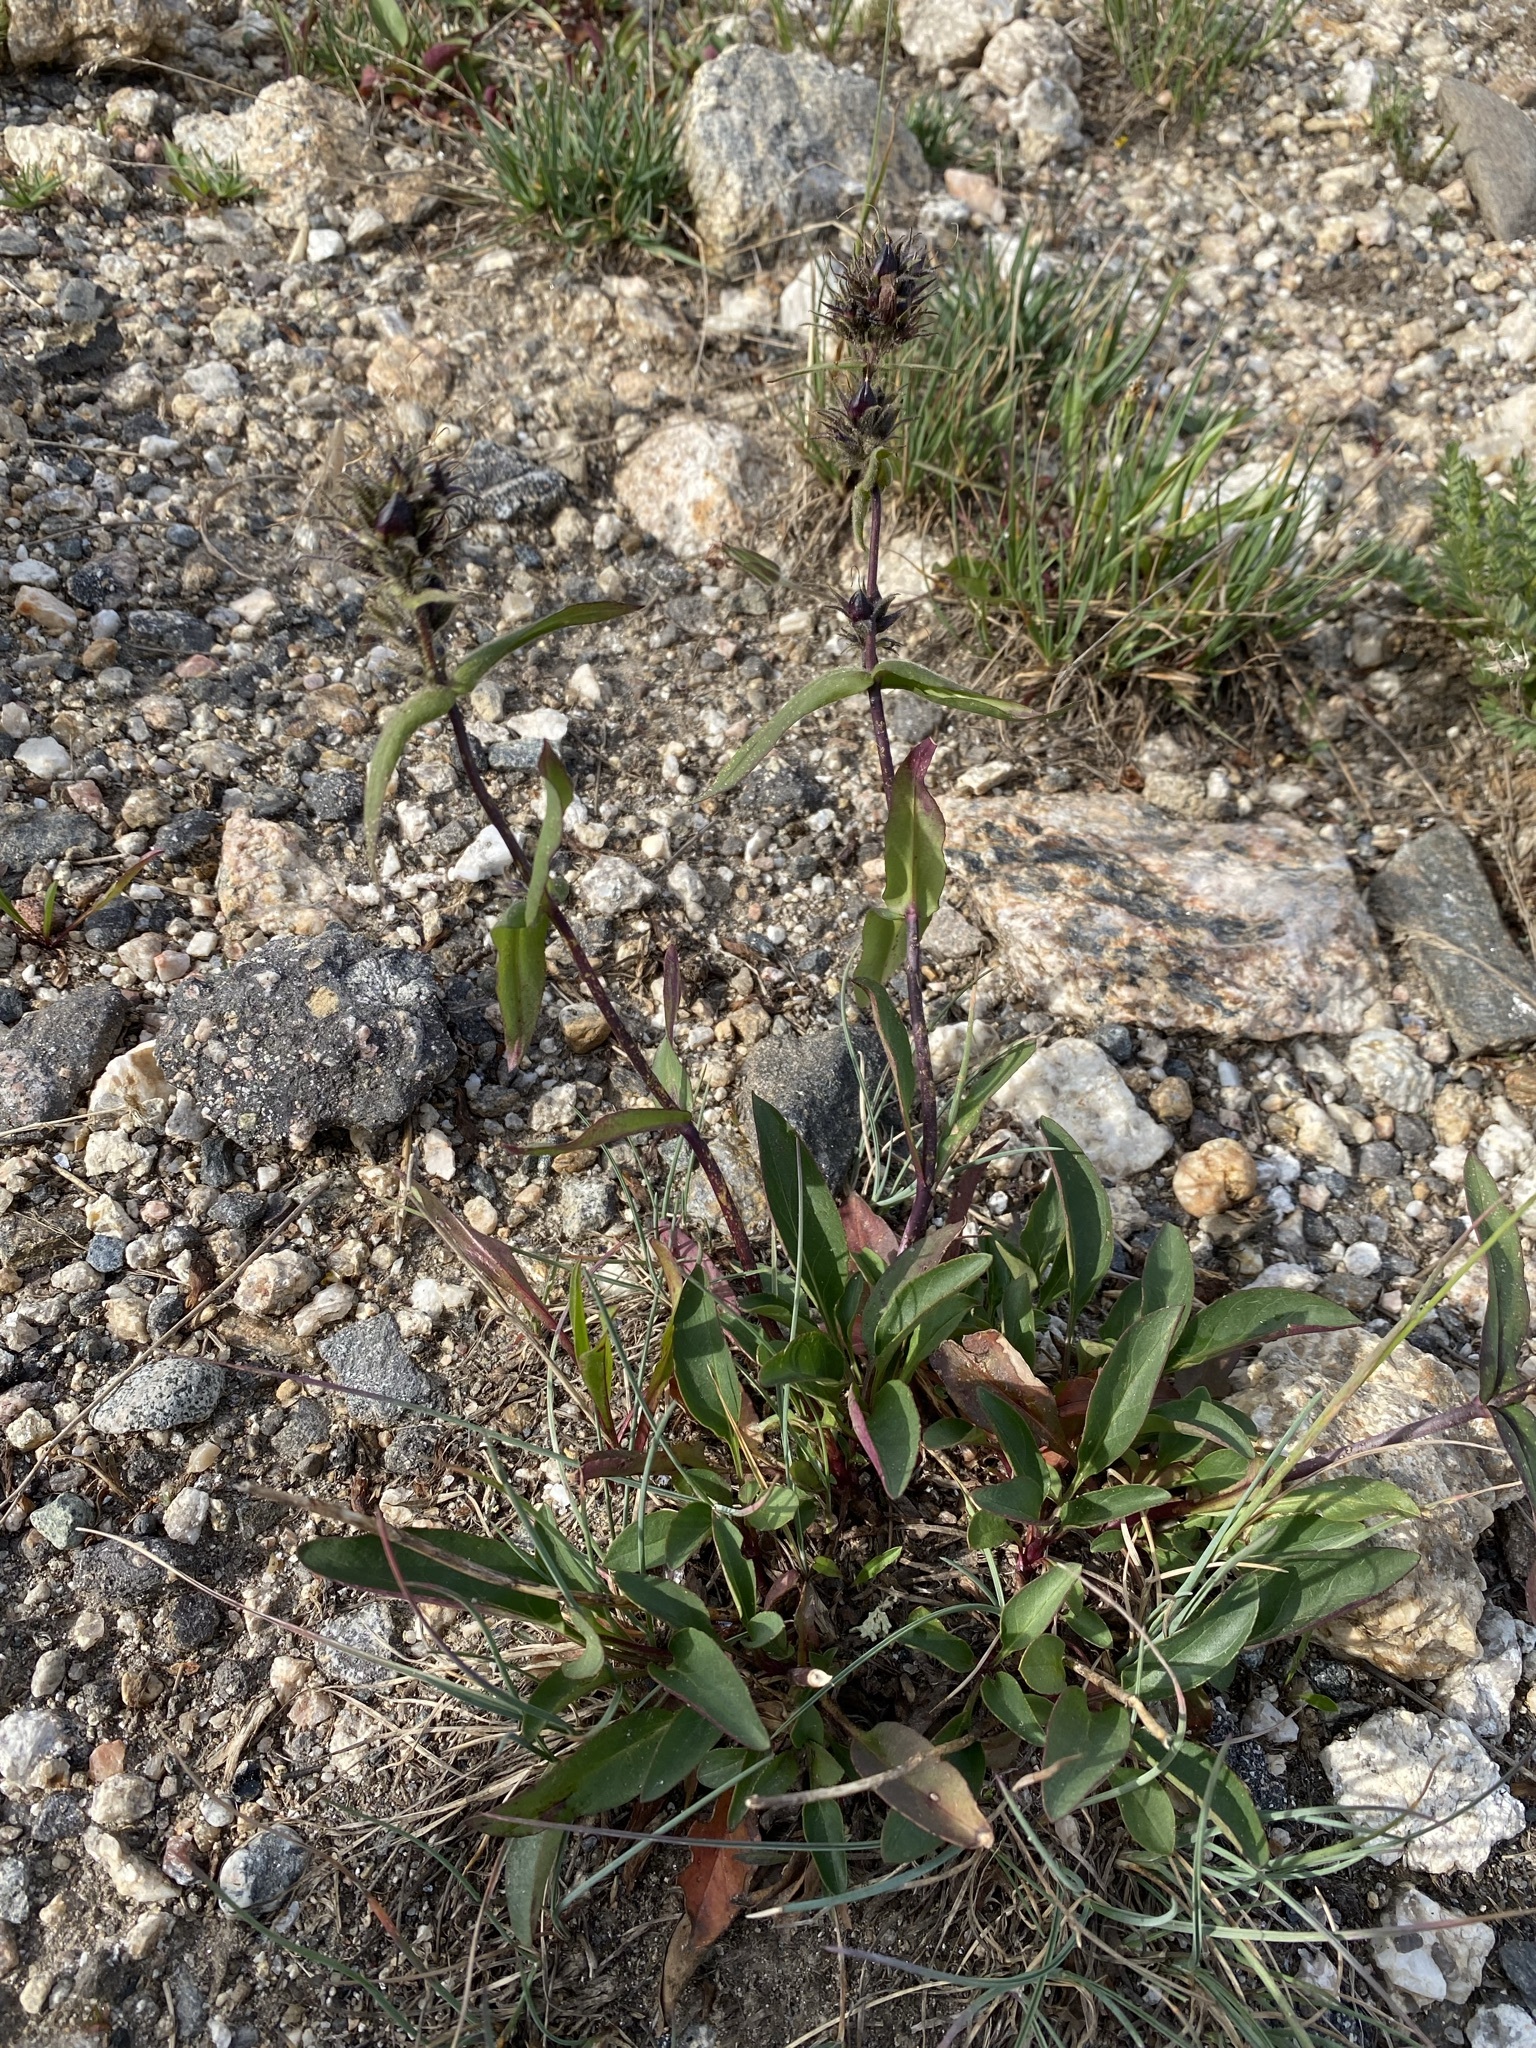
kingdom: Plantae
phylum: Tracheophyta
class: Magnoliopsida
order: Lamiales
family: Plantaginaceae
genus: Penstemon
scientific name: Penstemon whippleanus
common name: Whipple's penstemon
